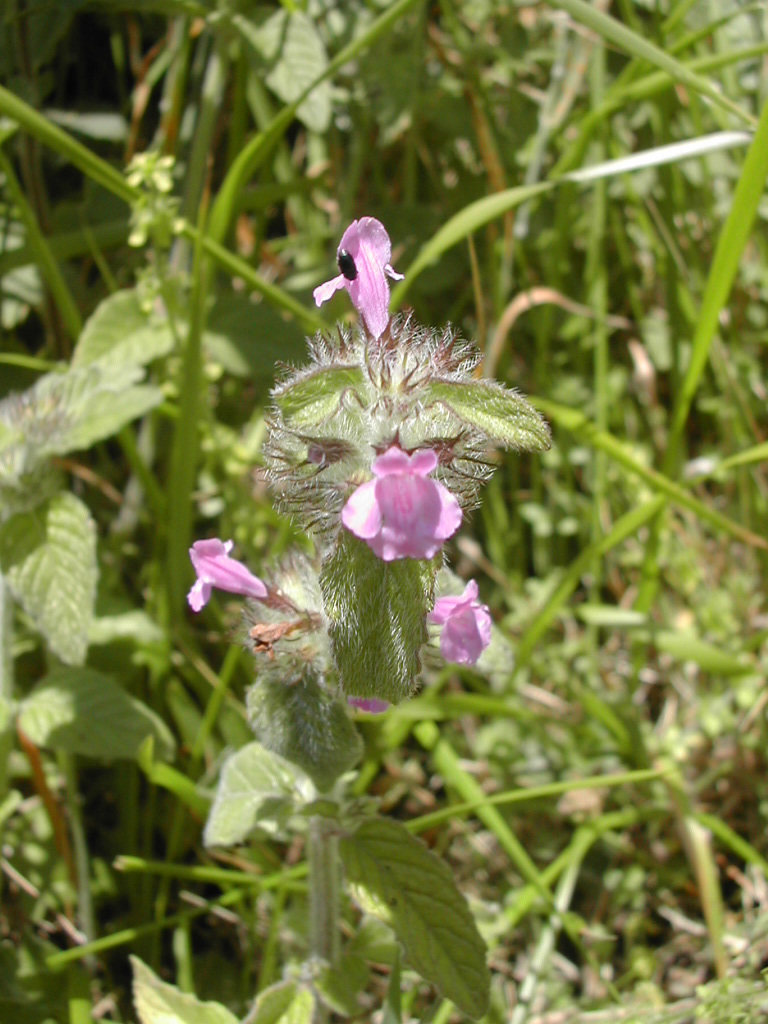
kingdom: Plantae
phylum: Tracheophyta
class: Magnoliopsida
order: Lamiales
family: Lamiaceae
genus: Clinopodium
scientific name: Clinopodium vulgare
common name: Wild basil
